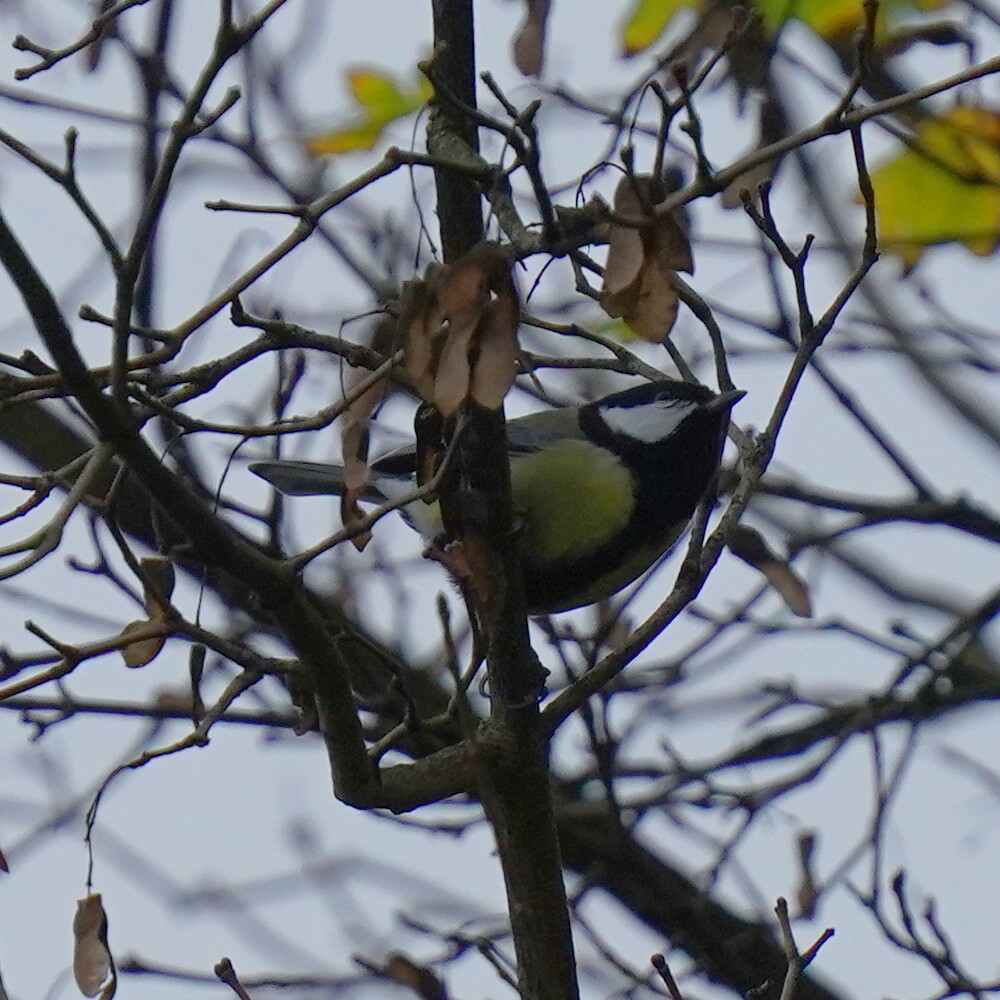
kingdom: Animalia
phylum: Chordata
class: Aves
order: Passeriformes
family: Paridae
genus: Parus
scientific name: Parus major
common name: Great tit
